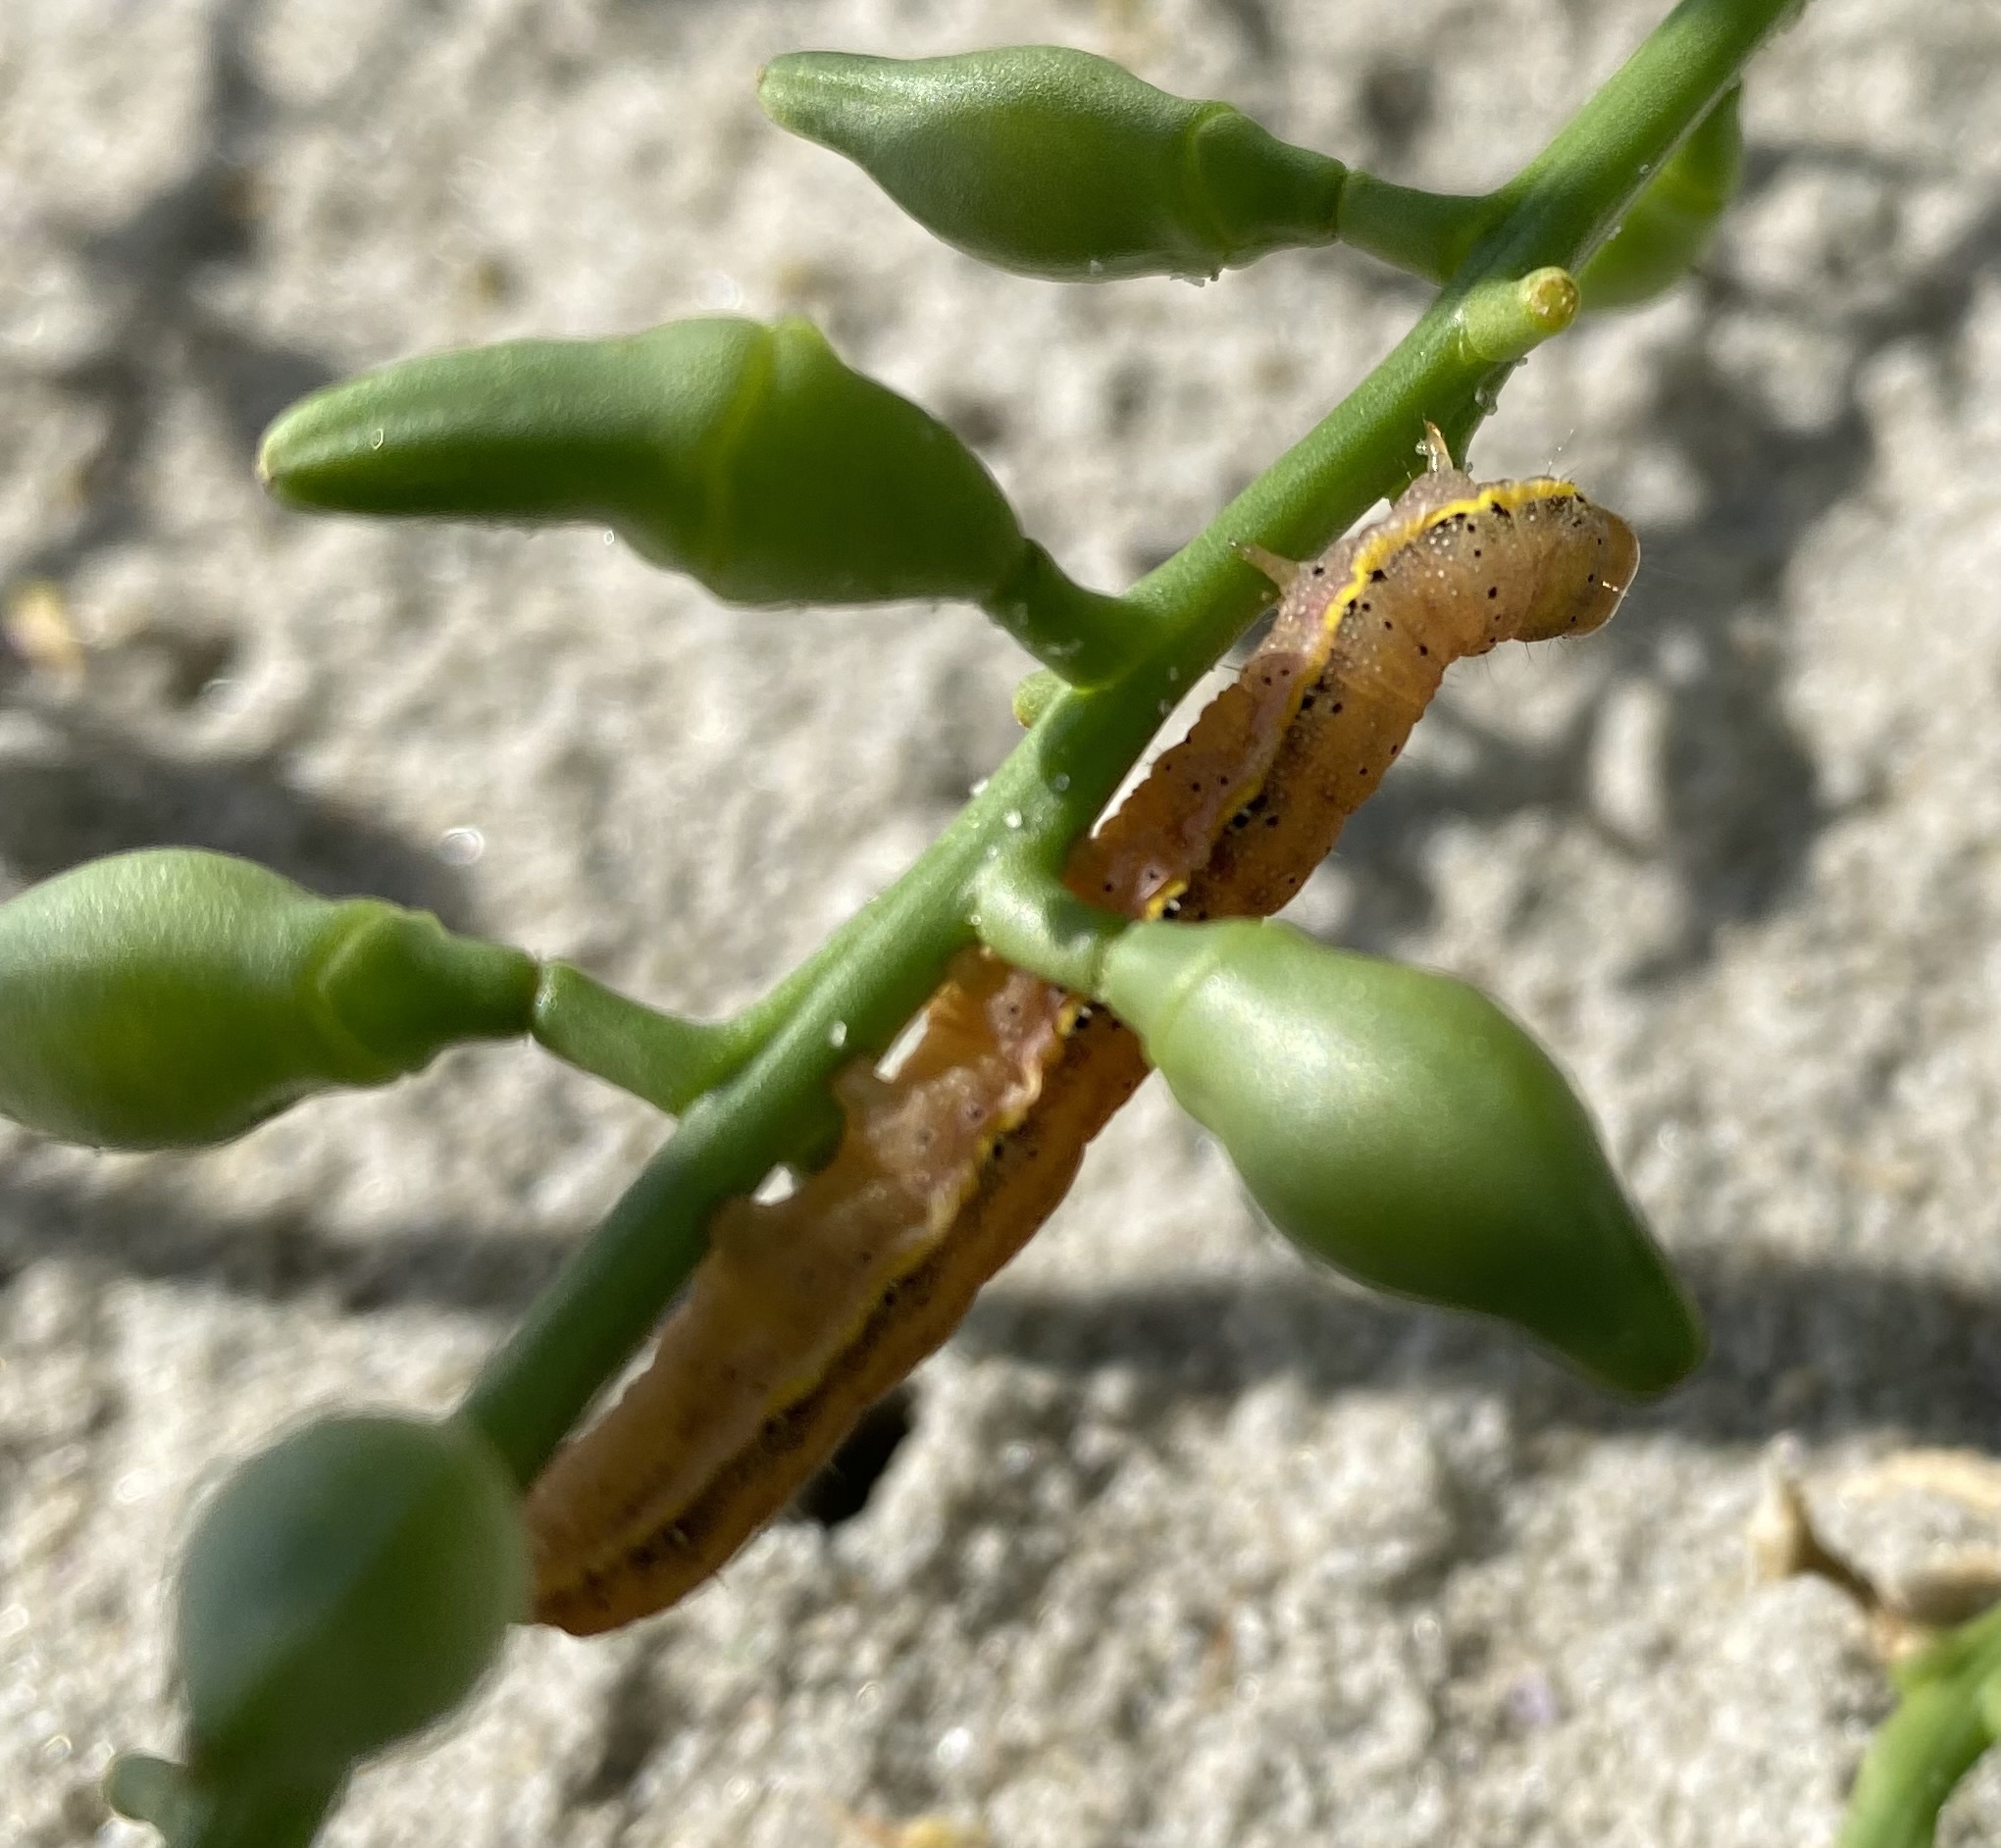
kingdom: Animalia
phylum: Arthropoda
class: Insecta
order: Lepidoptera
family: Noctuidae
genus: Lacanobia
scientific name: Lacanobia oleracea
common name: Bright-line brown-eye
